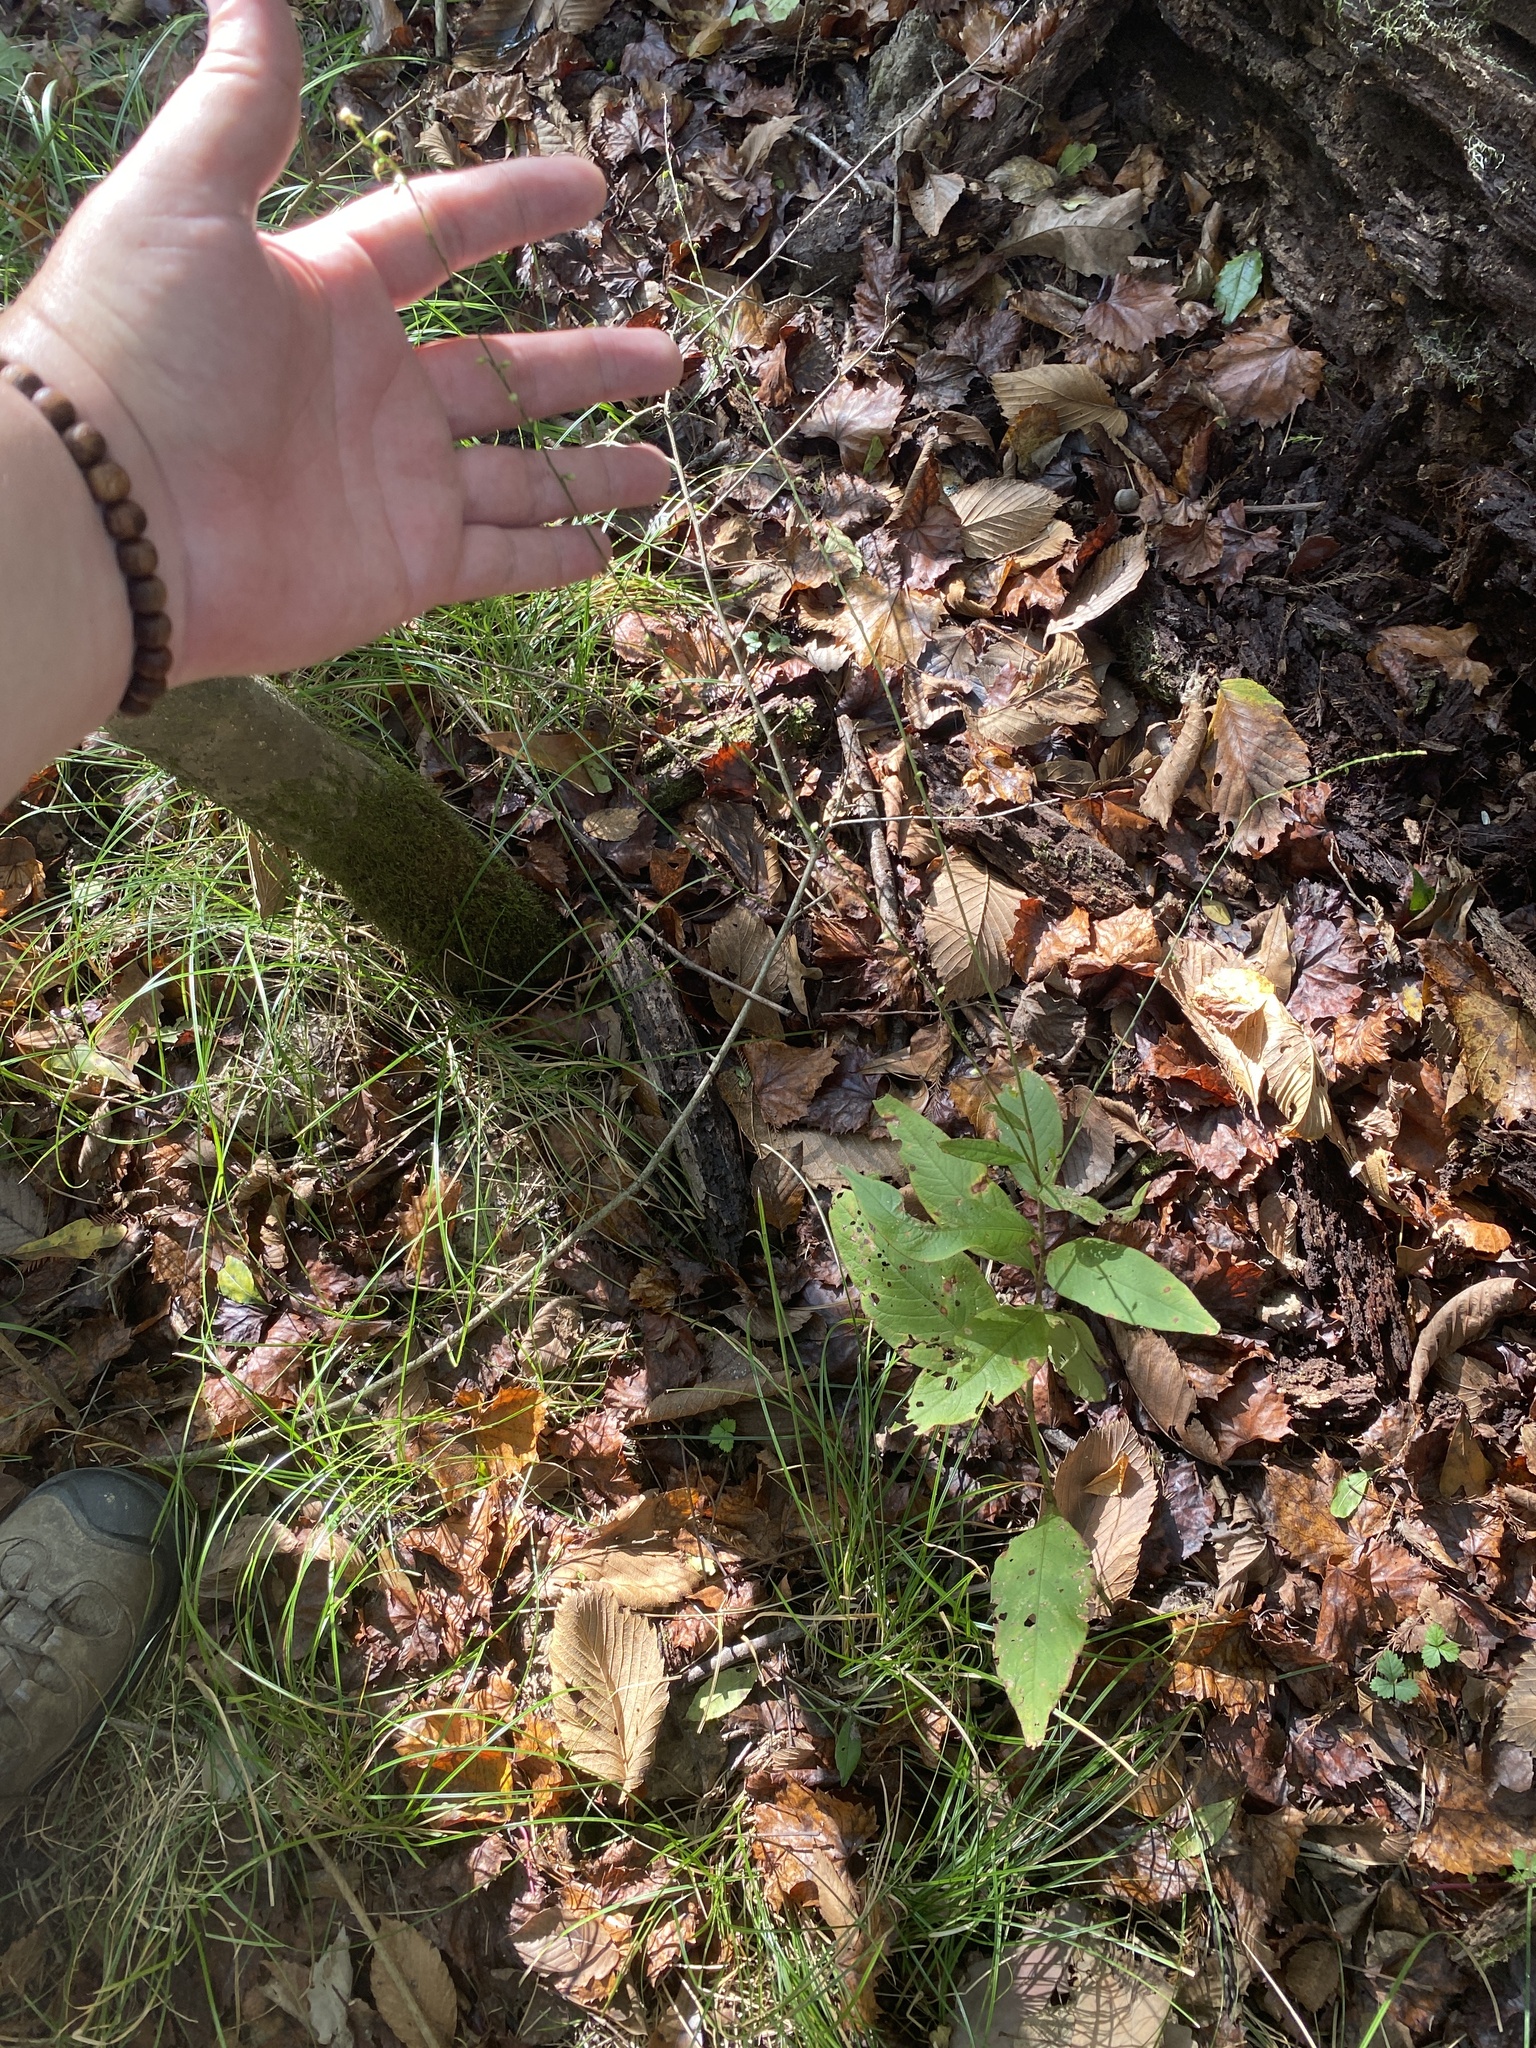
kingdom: Plantae
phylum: Tracheophyta
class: Magnoliopsida
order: Caryophyllales
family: Polygonaceae
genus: Persicaria
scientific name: Persicaria virginiana
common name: Jumpseed
